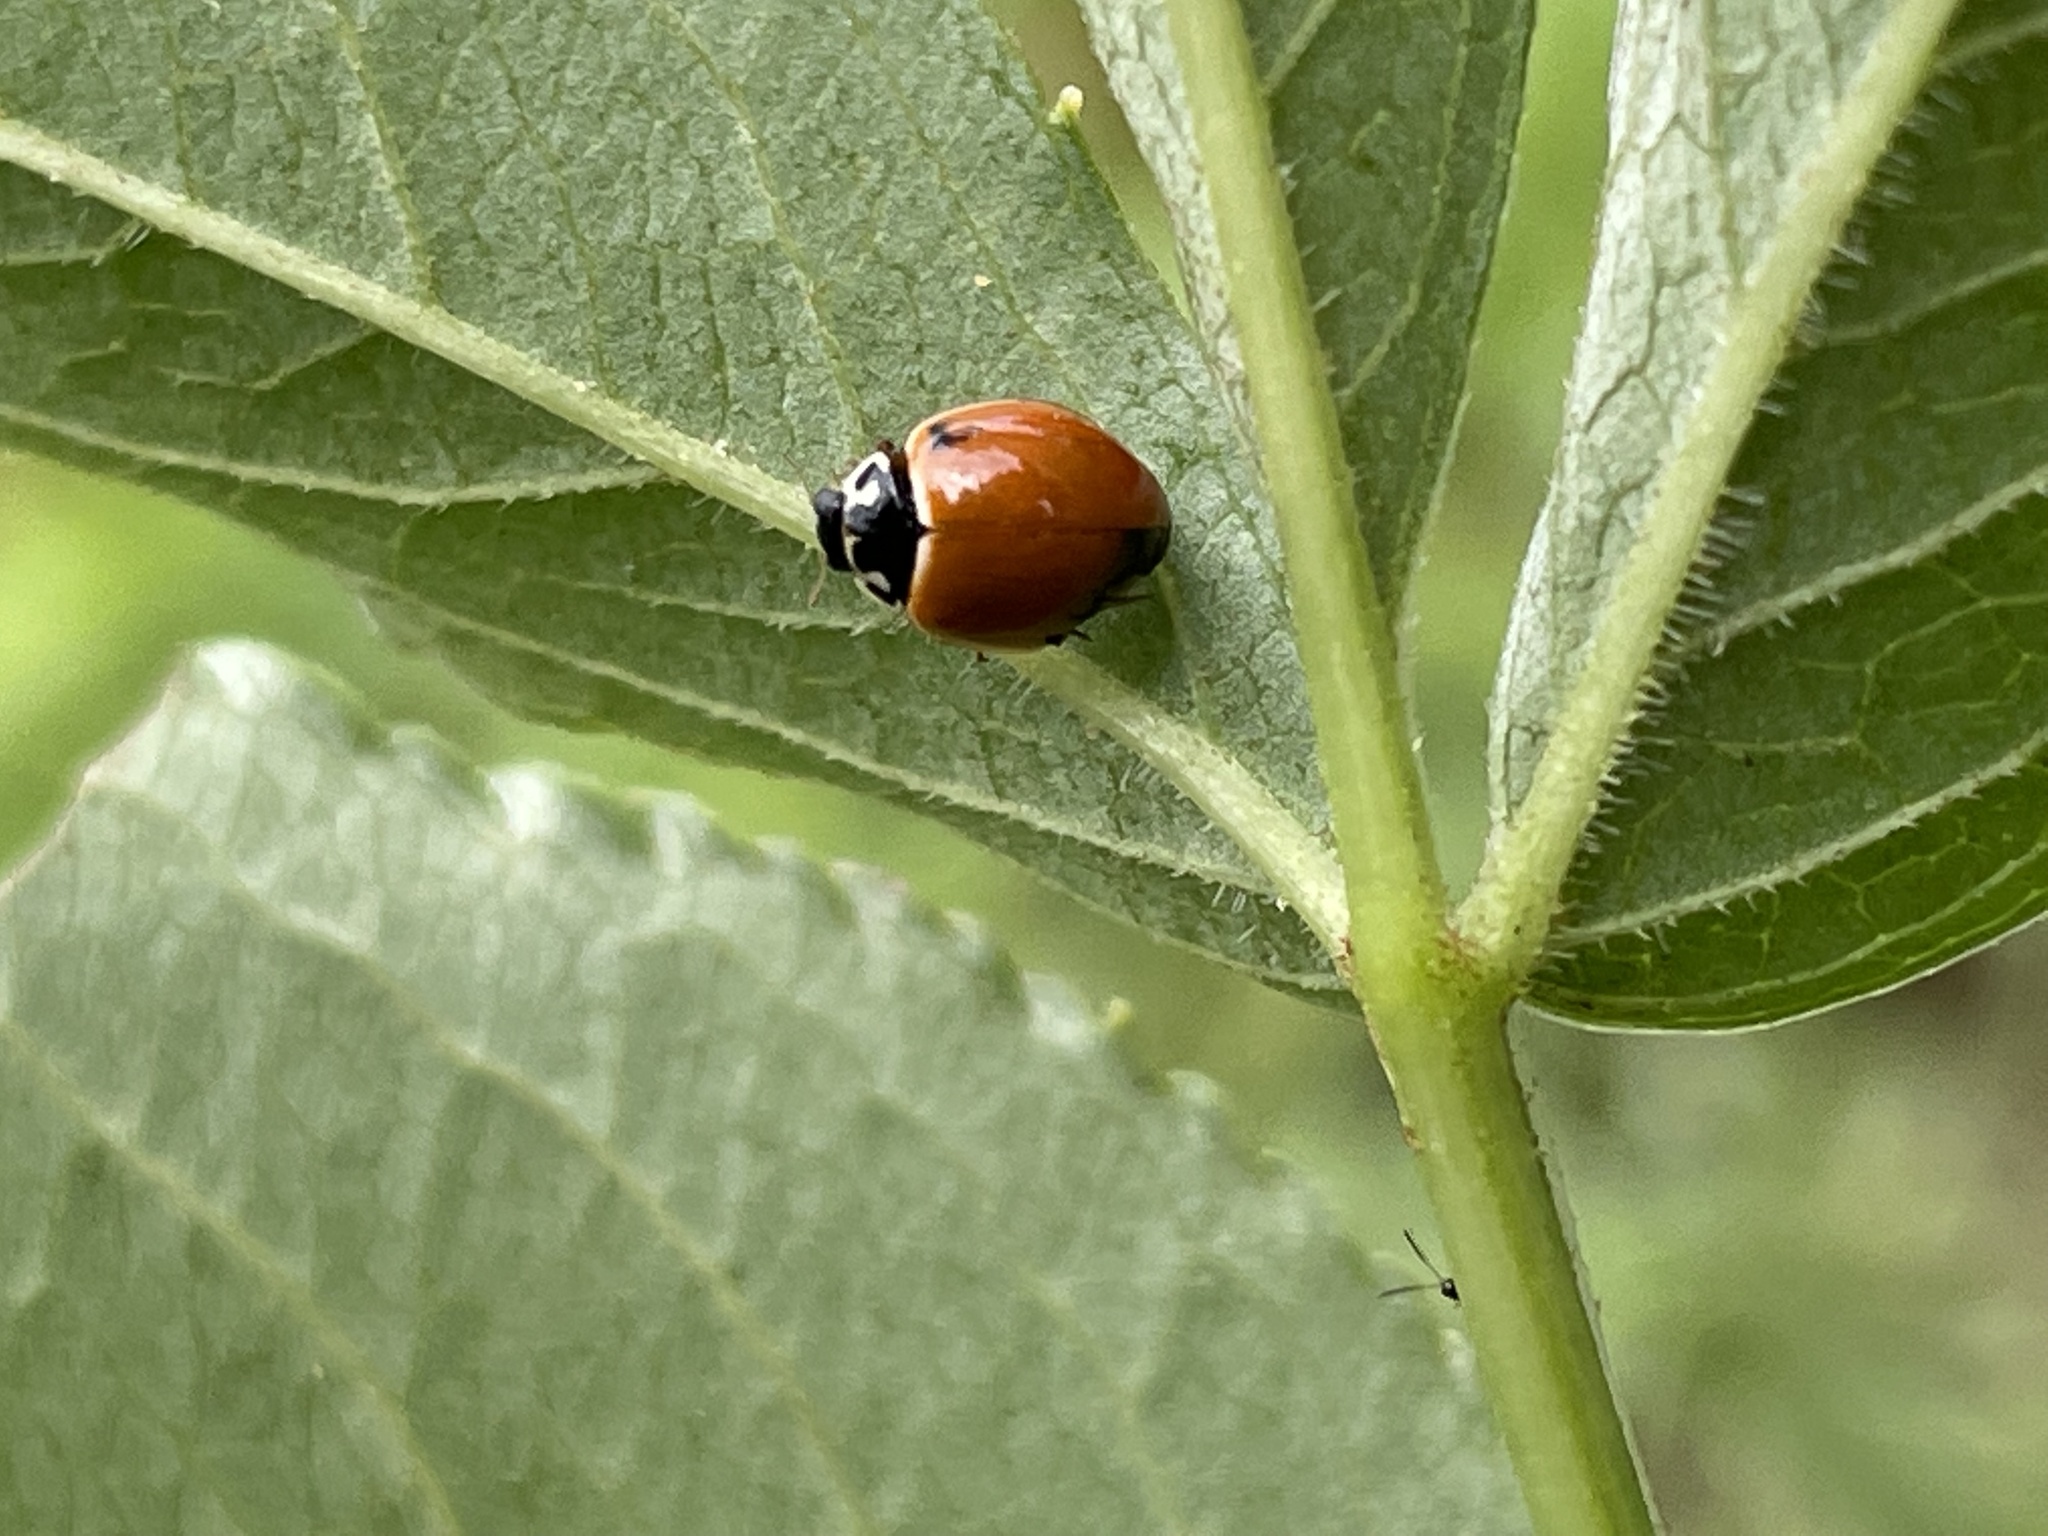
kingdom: Animalia
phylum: Arthropoda
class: Insecta
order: Coleoptera
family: Coccinellidae
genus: Cycloneda
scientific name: Cycloneda munda
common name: Polished lady beetle
